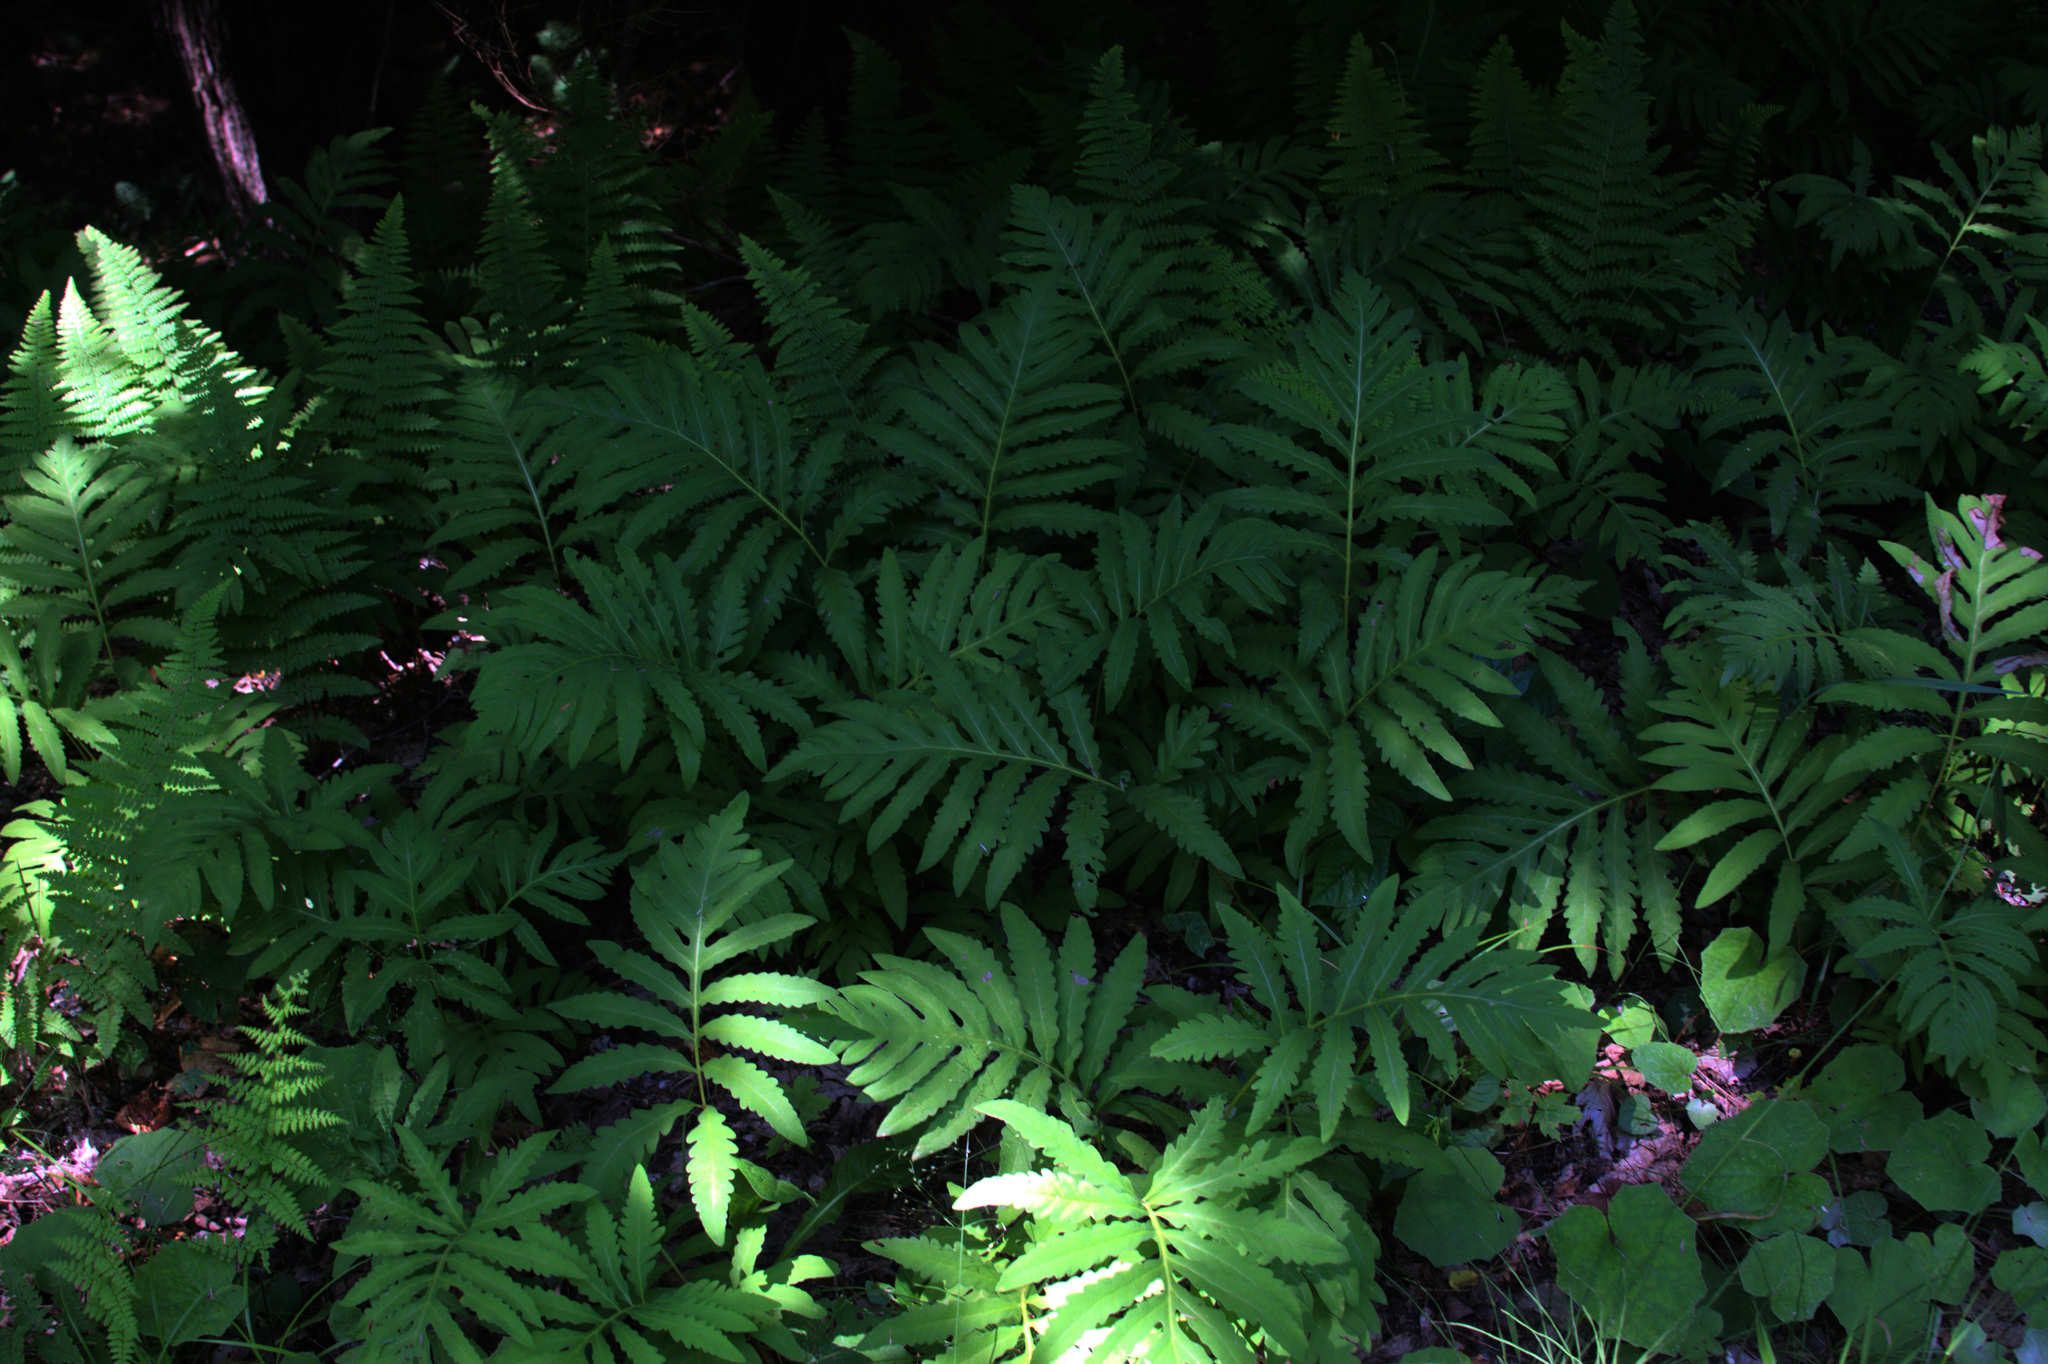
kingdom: Plantae
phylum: Tracheophyta
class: Polypodiopsida
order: Polypodiales
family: Onocleaceae
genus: Onoclea
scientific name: Onoclea sensibilis
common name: Sensitive fern
